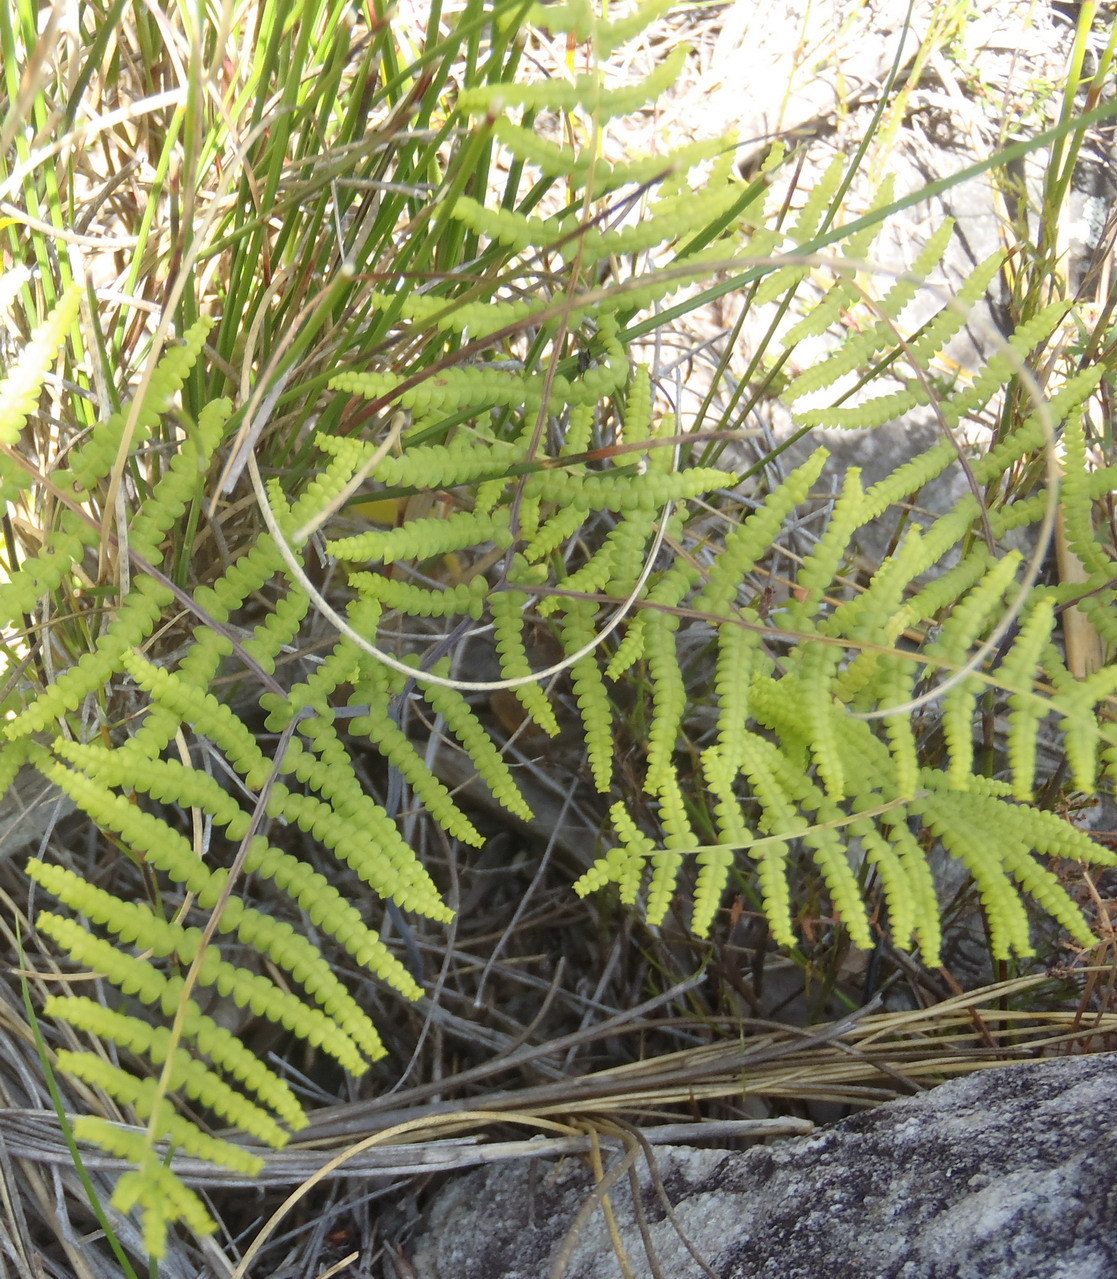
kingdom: Plantae
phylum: Tracheophyta
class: Polypodiopsida
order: Gleicheniales
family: Gleicheniaceae
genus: Gleichenia
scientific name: Gleichenia polypodioides
